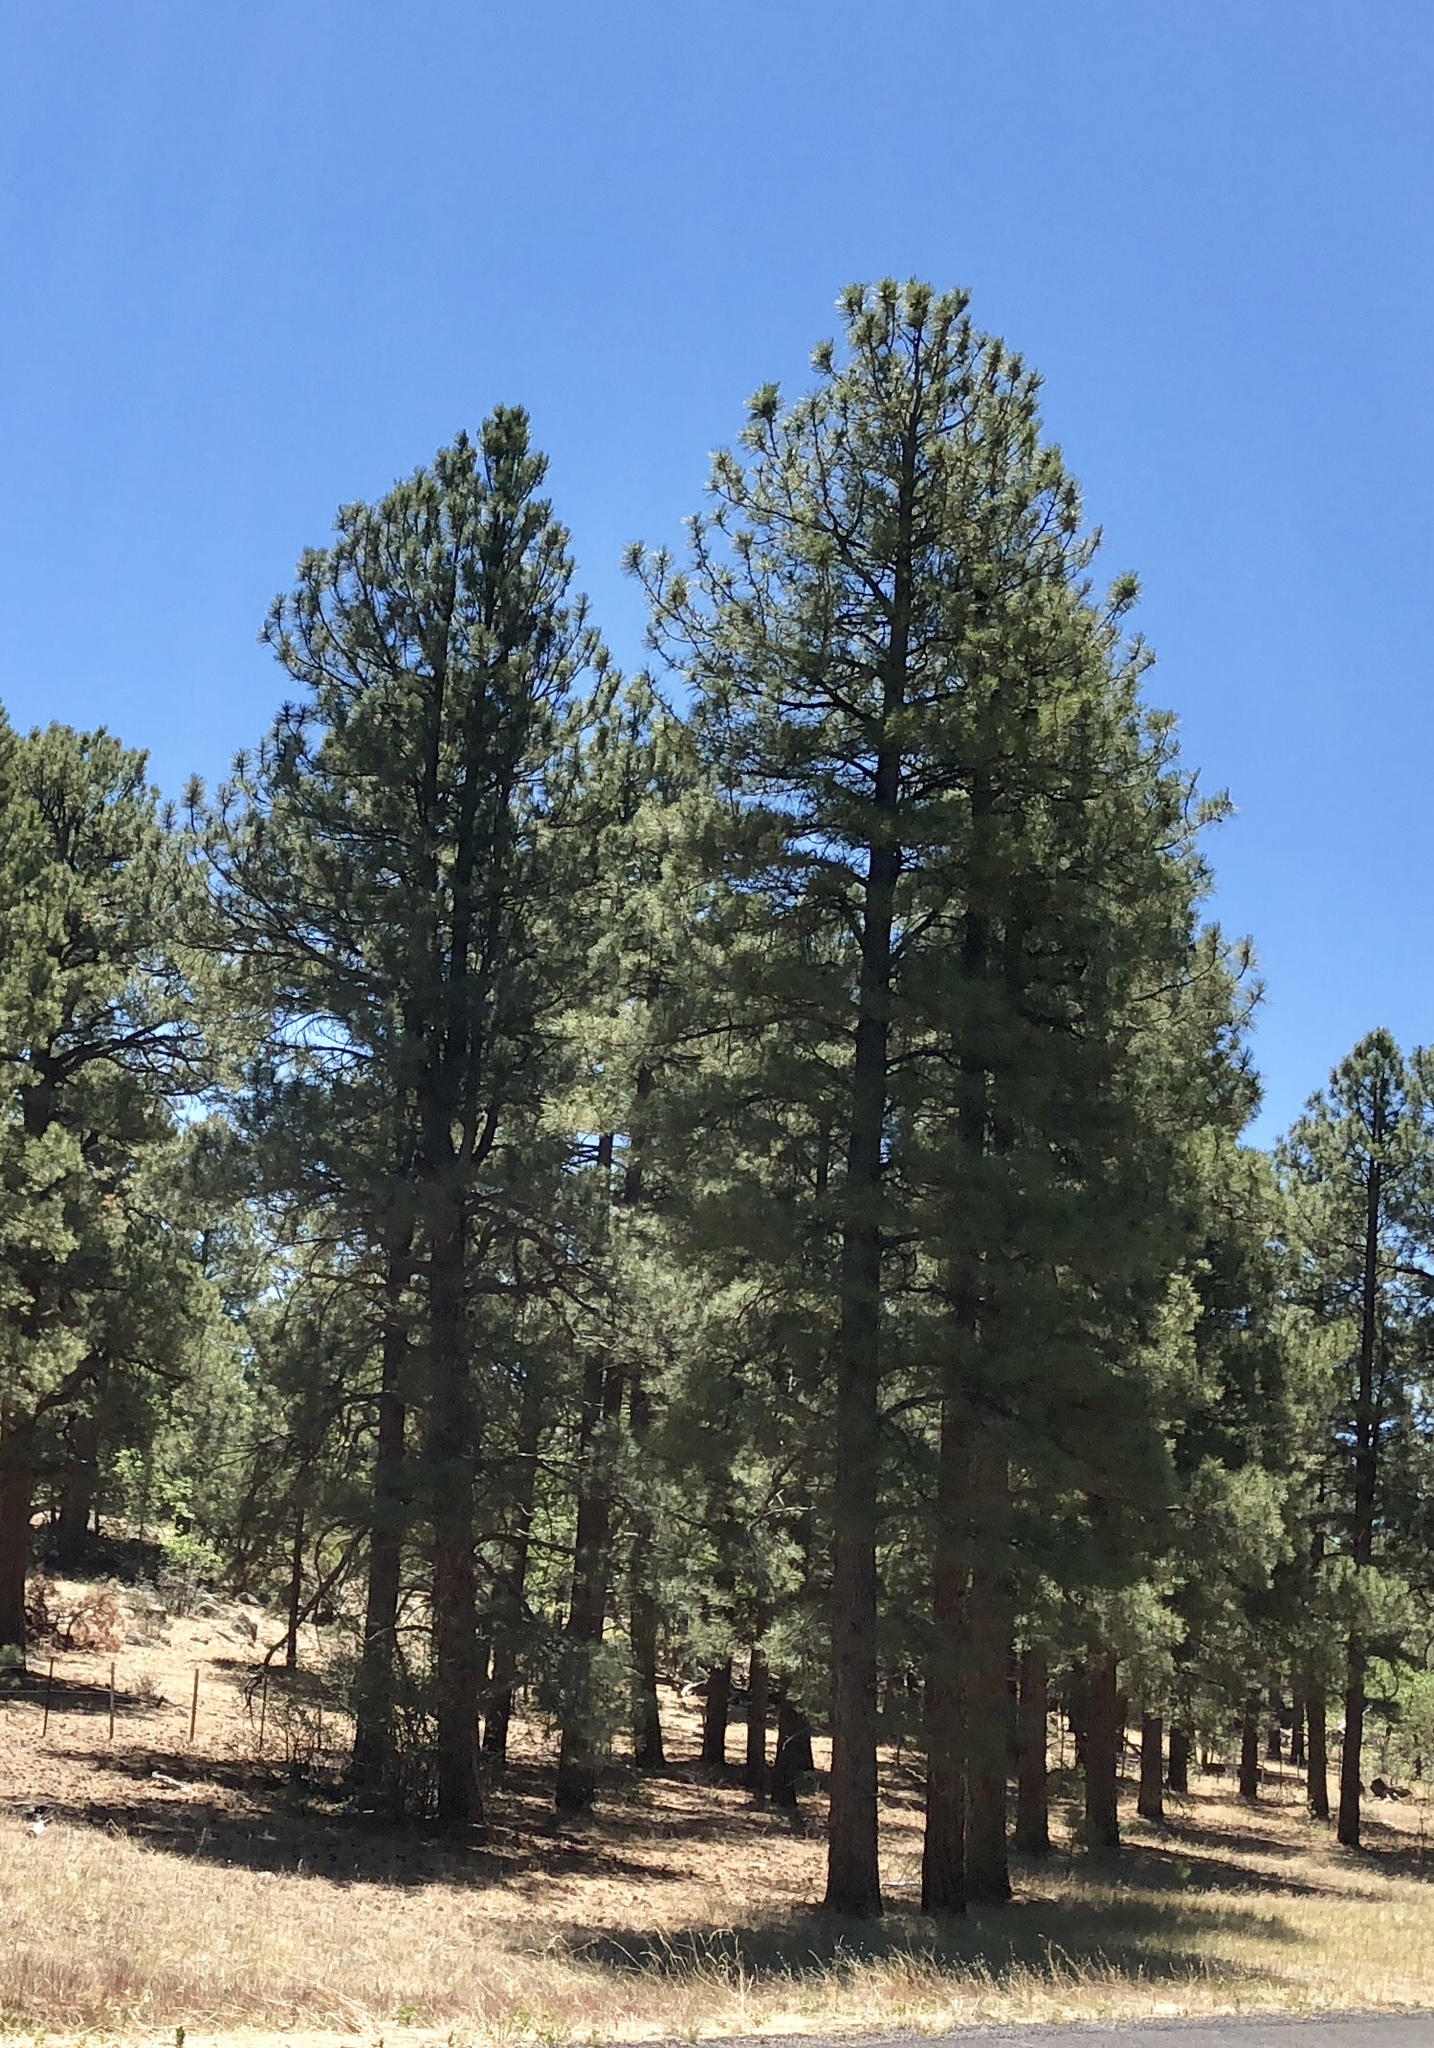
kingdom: Plantae
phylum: Tracheophyta
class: Pinopsida
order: Pinales
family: Pinaceae
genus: Pinus
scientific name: Pinus ponderosa
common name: Western yellow-pine
